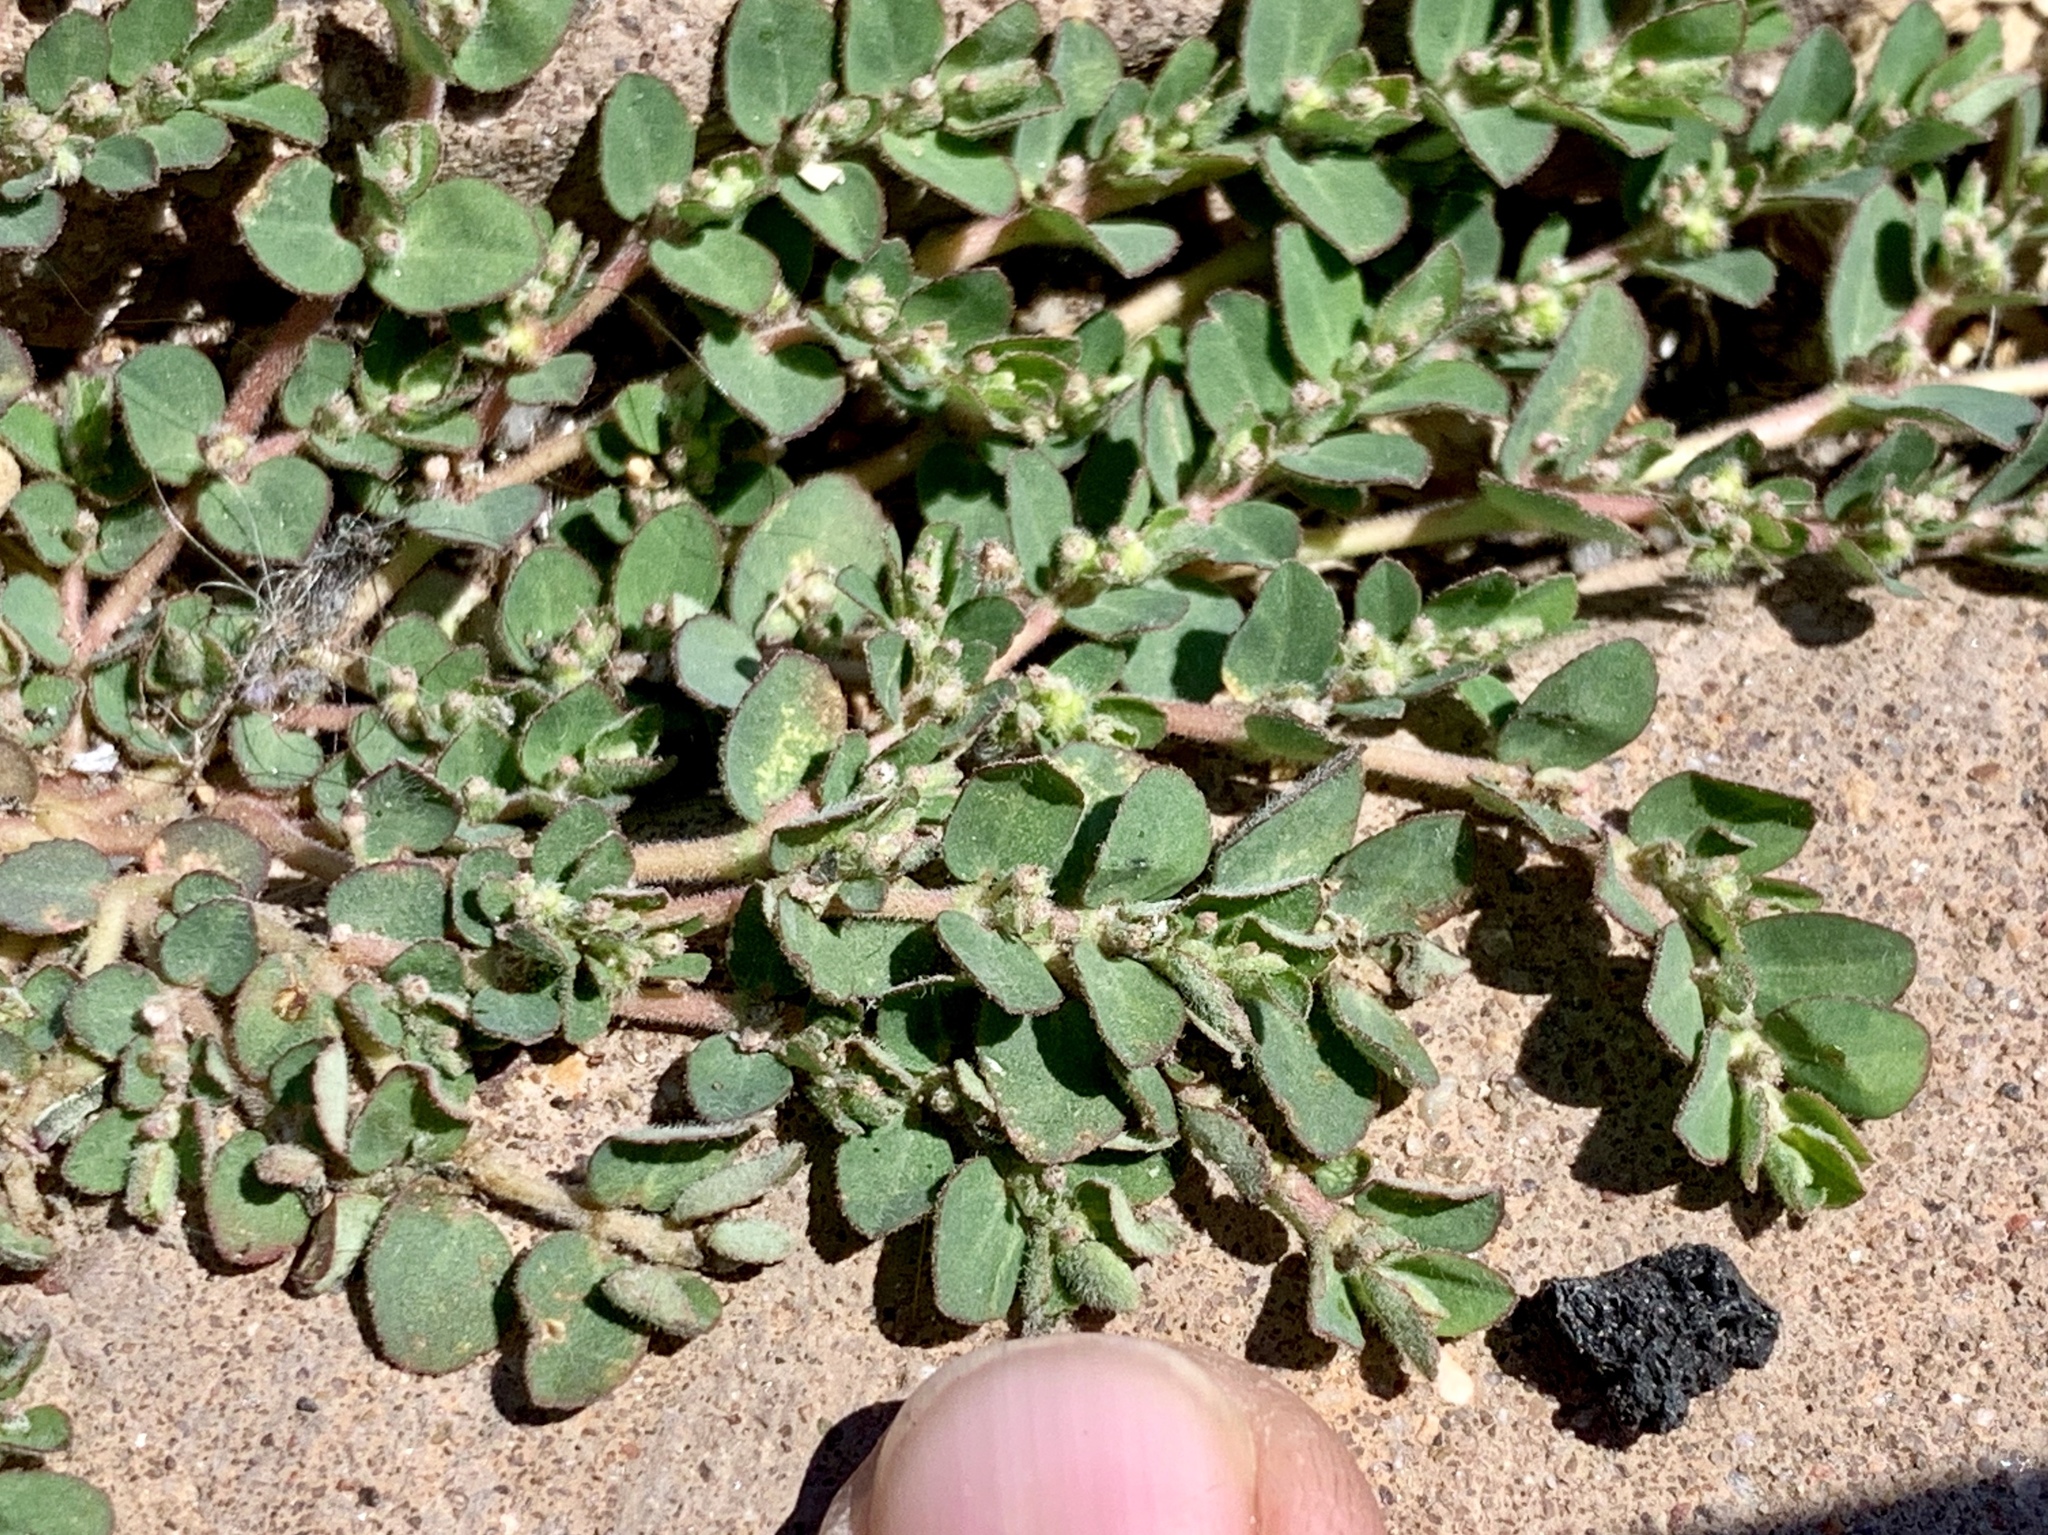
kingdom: Plantae
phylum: Tracheophyta
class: Magnoliopsida
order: Malpighiales
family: Euphorbiaceae
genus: Euphorbia
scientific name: Euphorbia prostrata
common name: Prostrate sandmat
